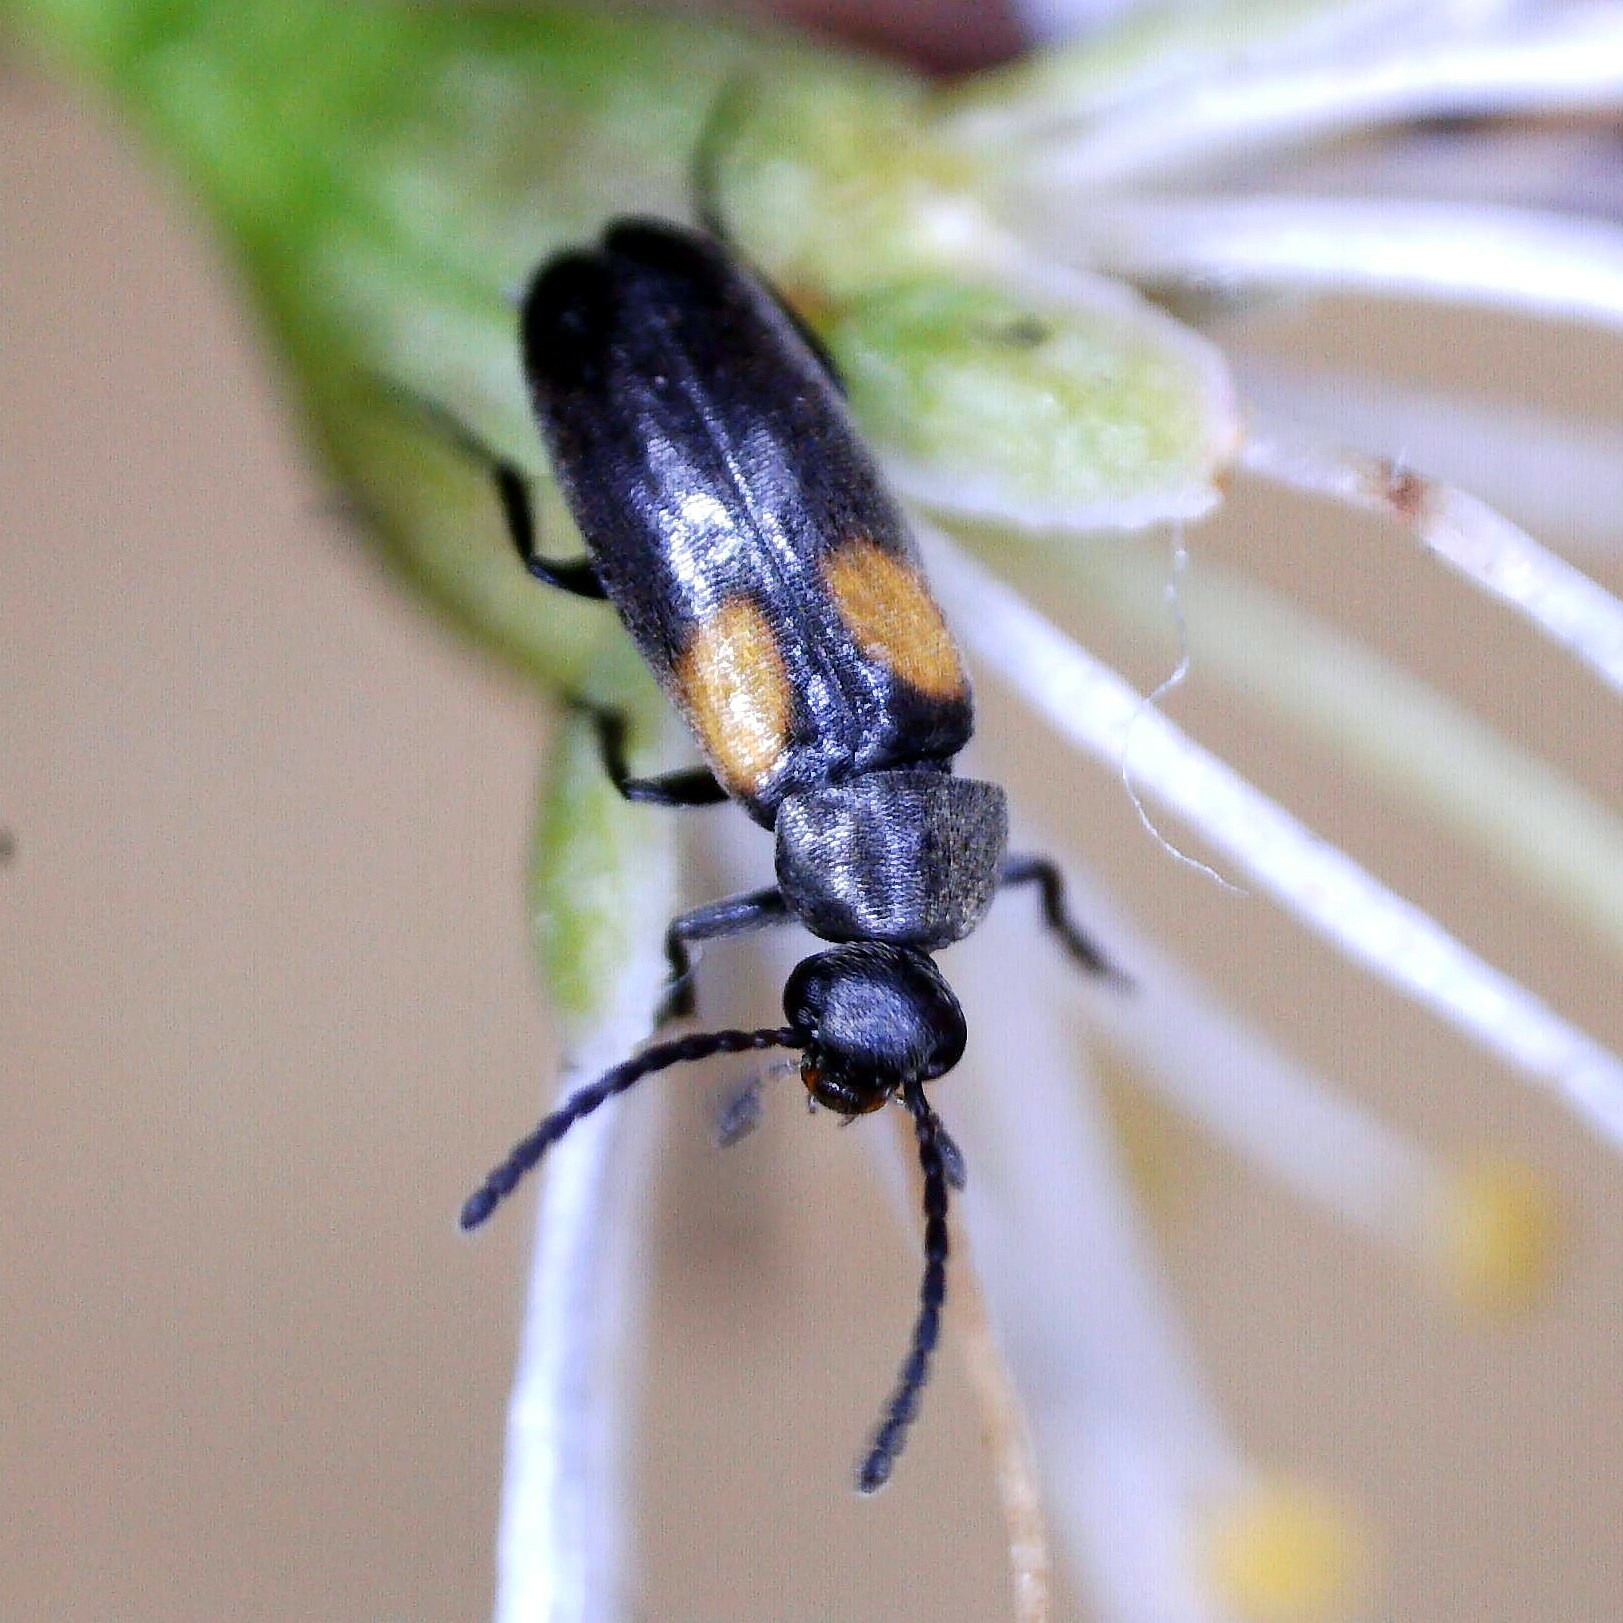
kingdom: Animalia
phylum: Arthropoda
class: Insecta
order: Coleoptera
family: Scraptiidae
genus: Anaspis
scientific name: Anaspis fasciata
